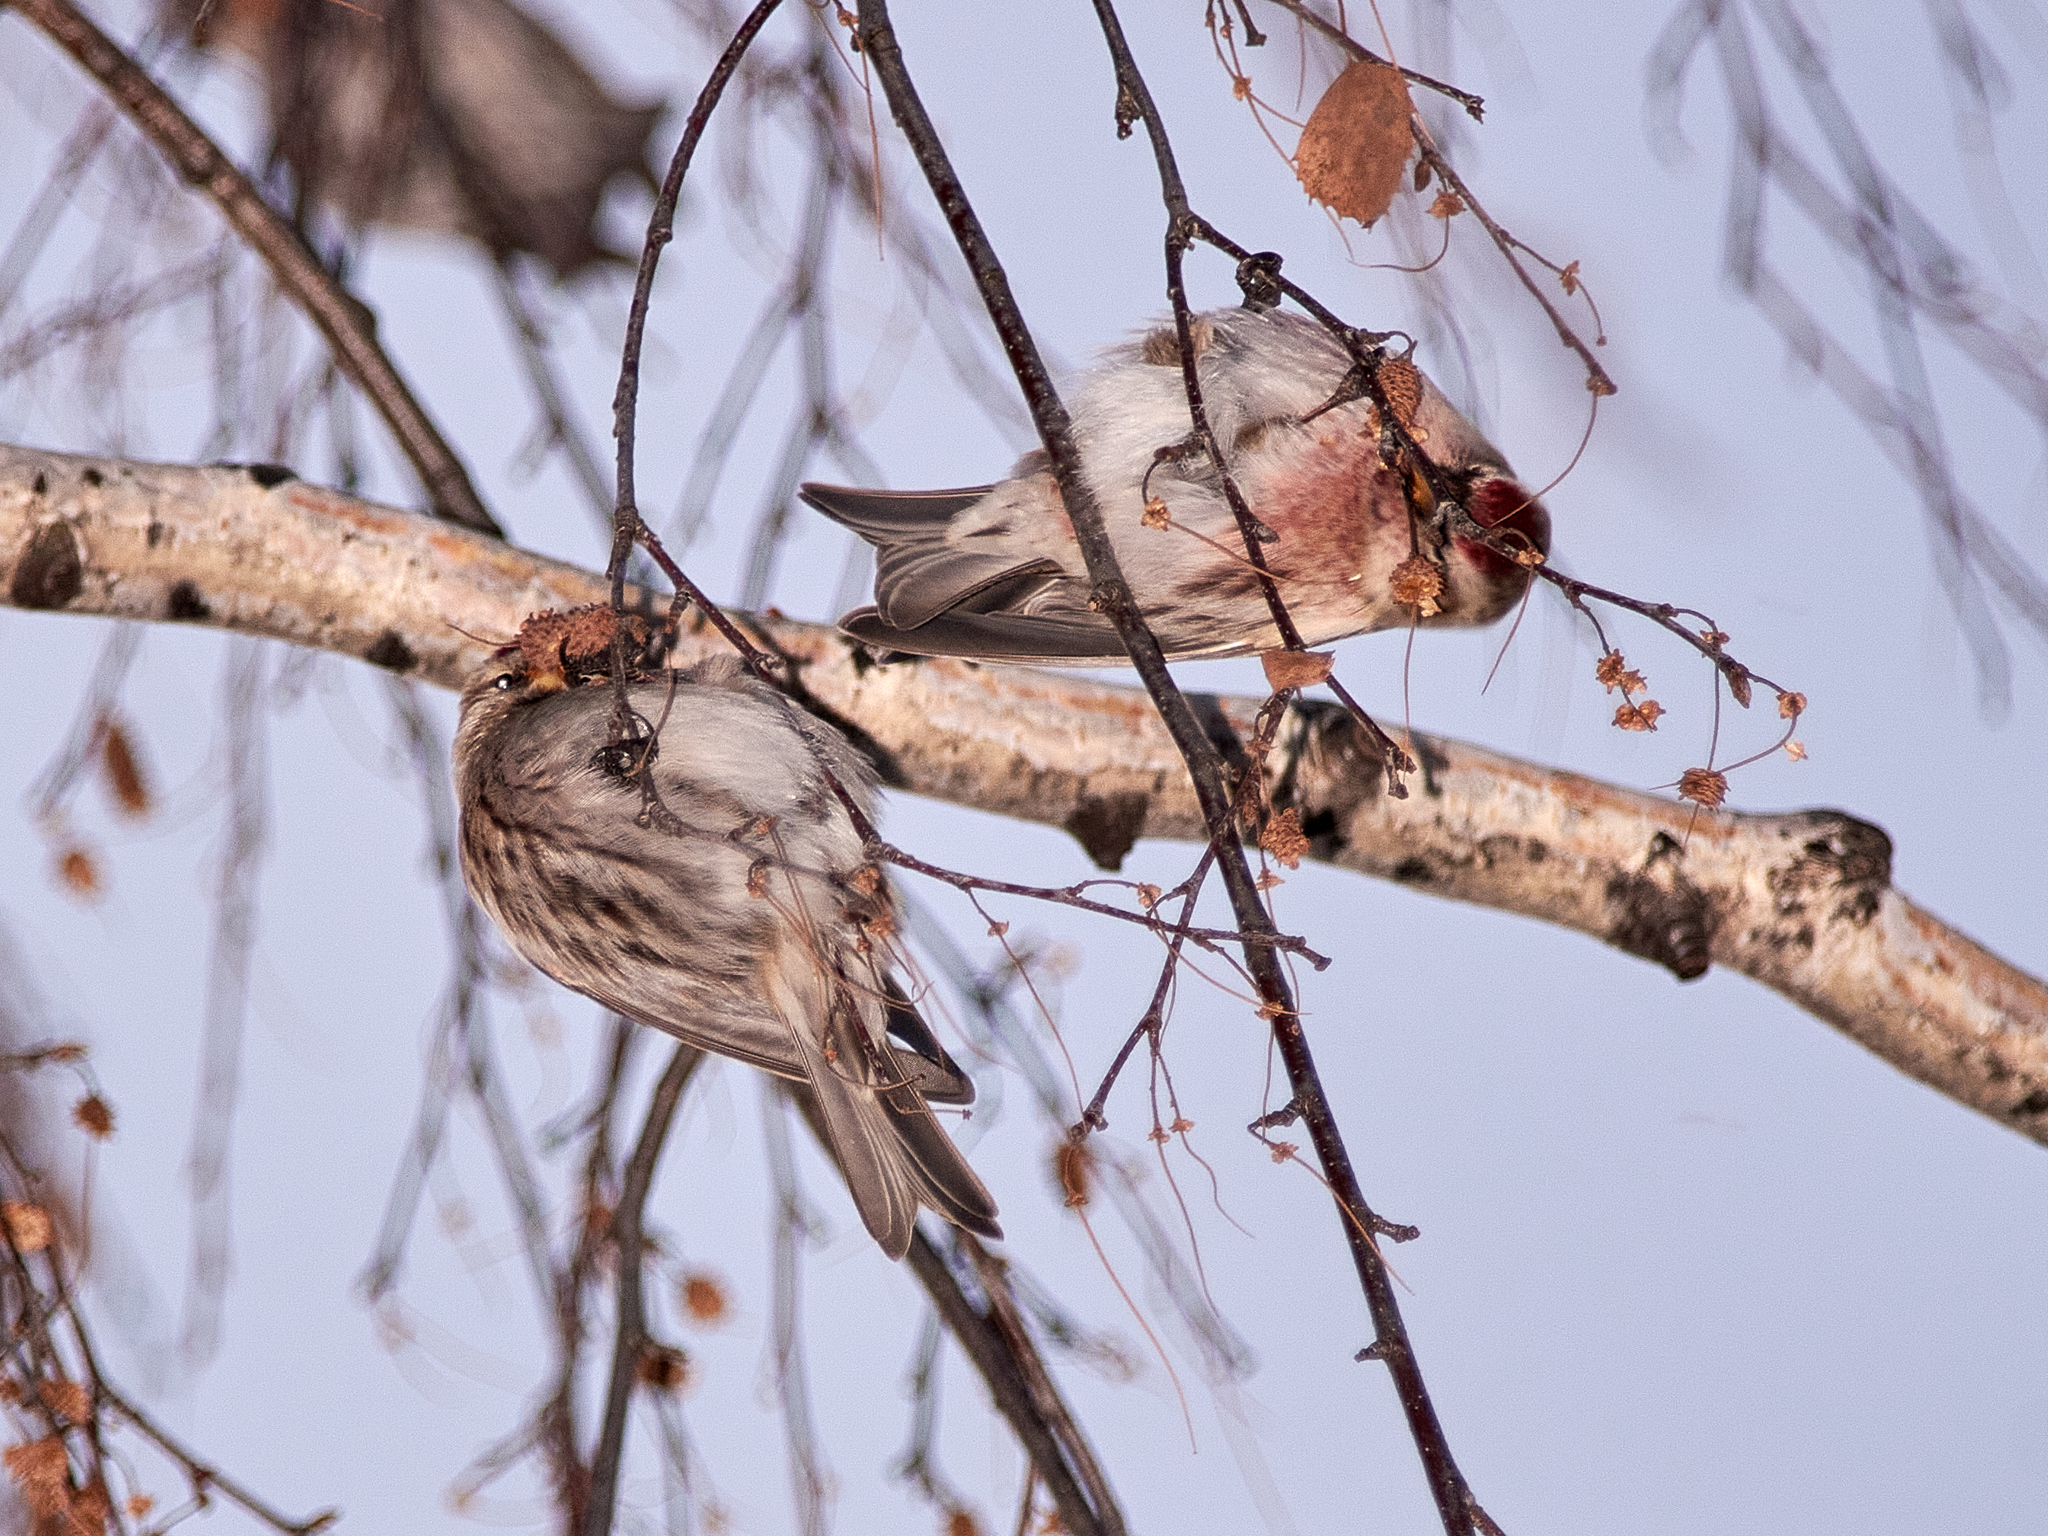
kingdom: Animalia
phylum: Chordata
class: Aves
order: Passeriformes
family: Fringillidae
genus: Acanthis
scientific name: Acanthis flammea
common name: Common redpoll
